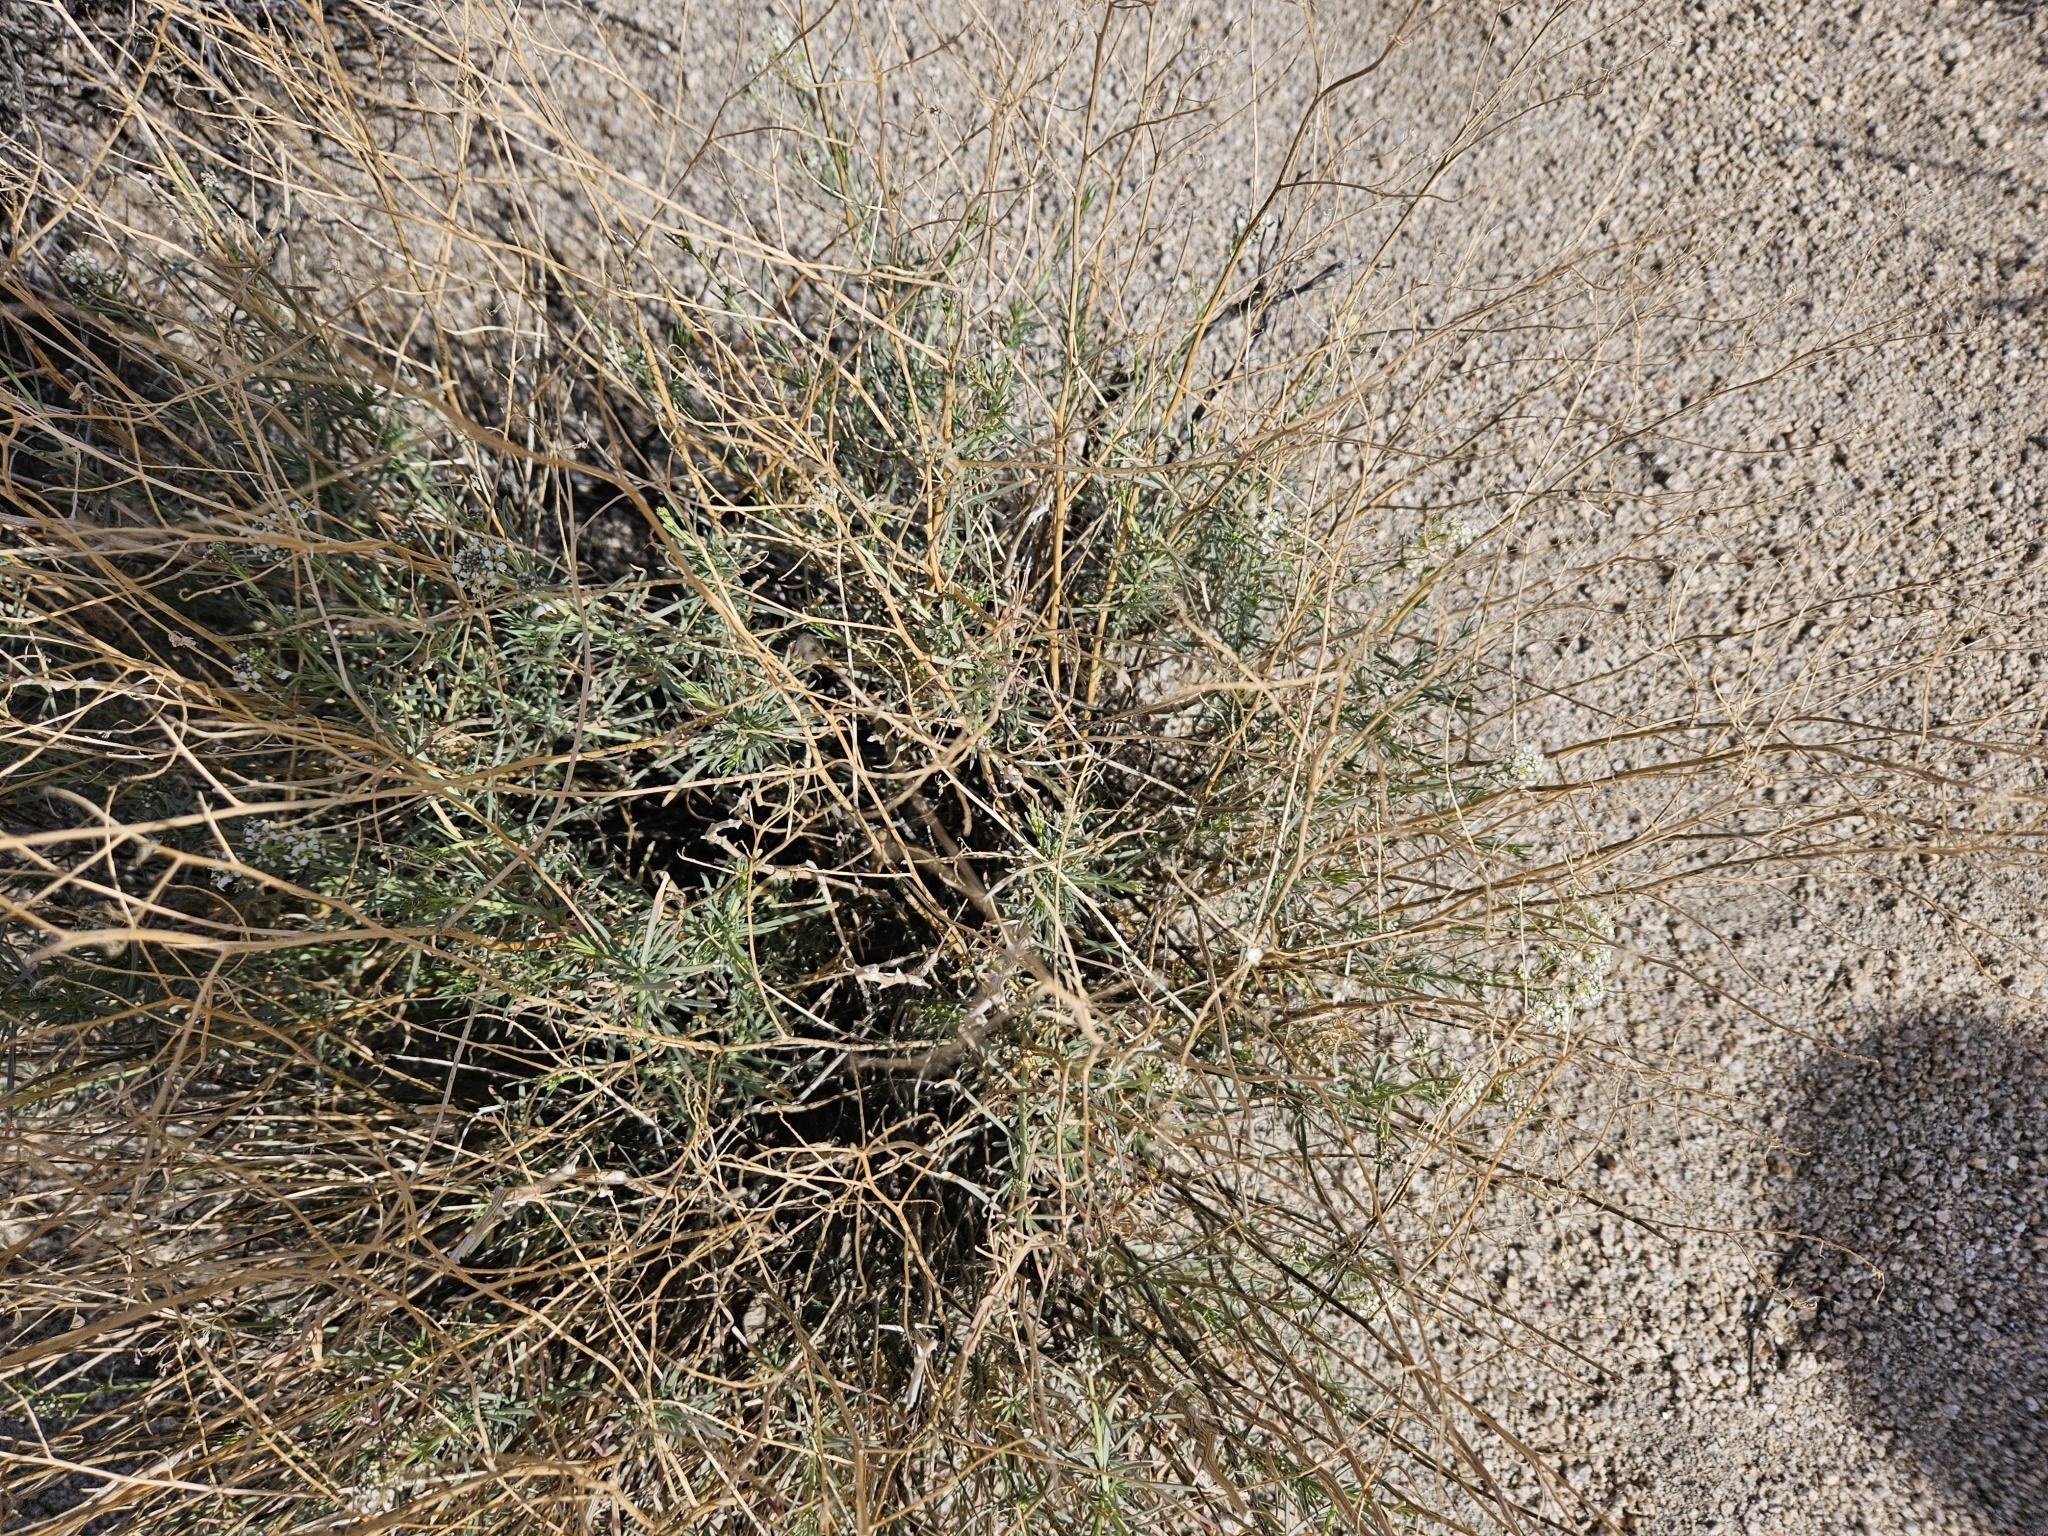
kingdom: Plantae
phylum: Tracheophyta
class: Magnoliopsida
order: Brassicales
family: Brassicaceae
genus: Lepidium
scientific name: Lepidium fremontii
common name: Fremont's pepperwort
